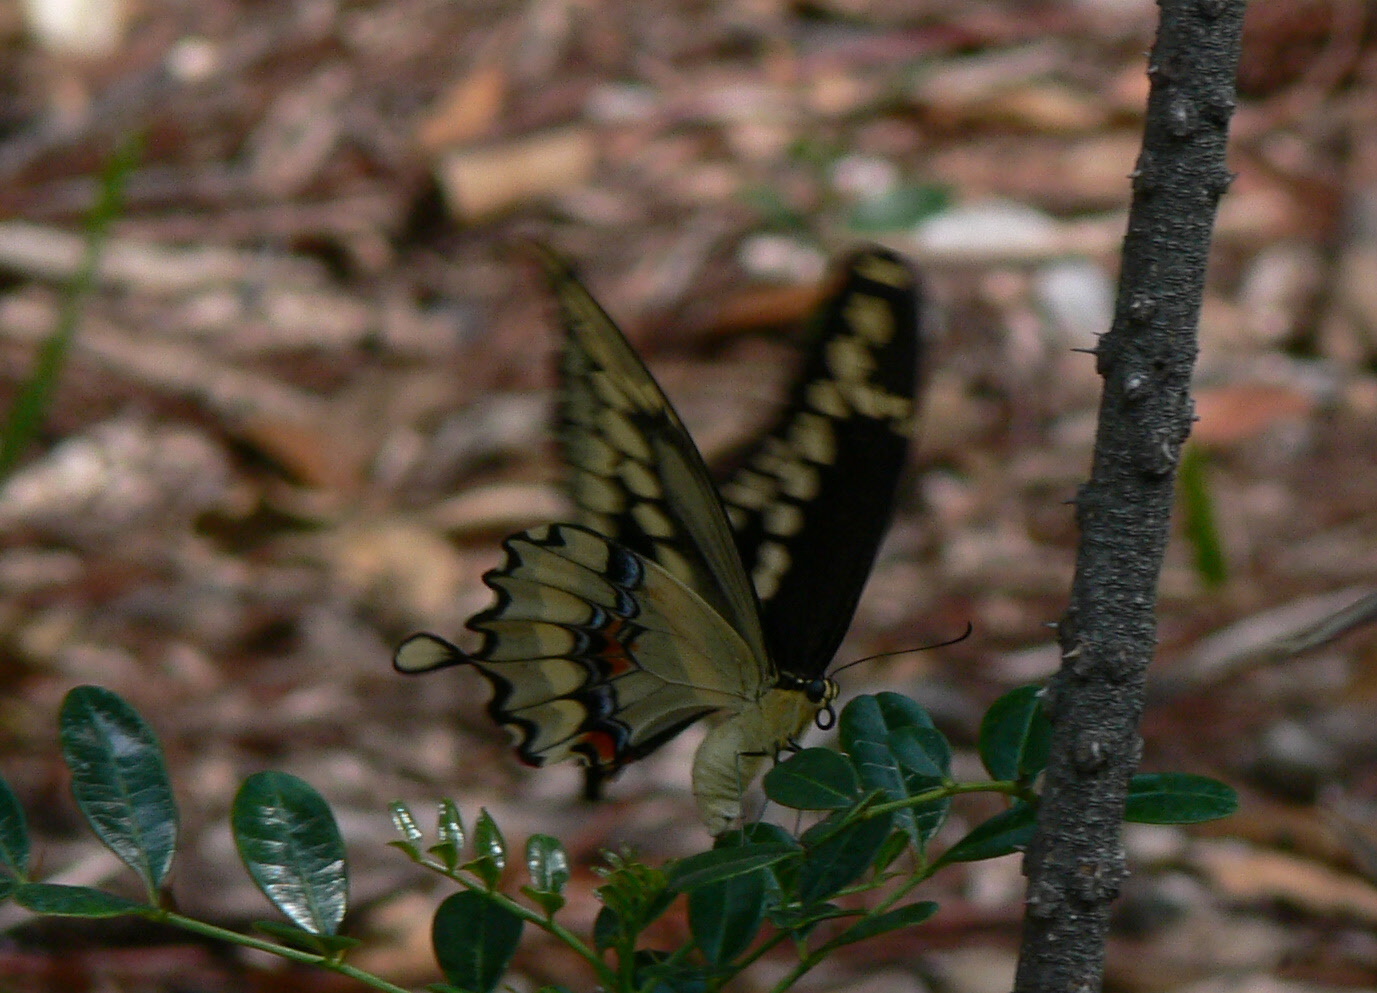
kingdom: Animalia
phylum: Arthropoda
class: Insecta
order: Lepidoptera
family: Papilionidae
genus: Papilio
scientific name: Papilio cresphontes
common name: Giant swallowtail
